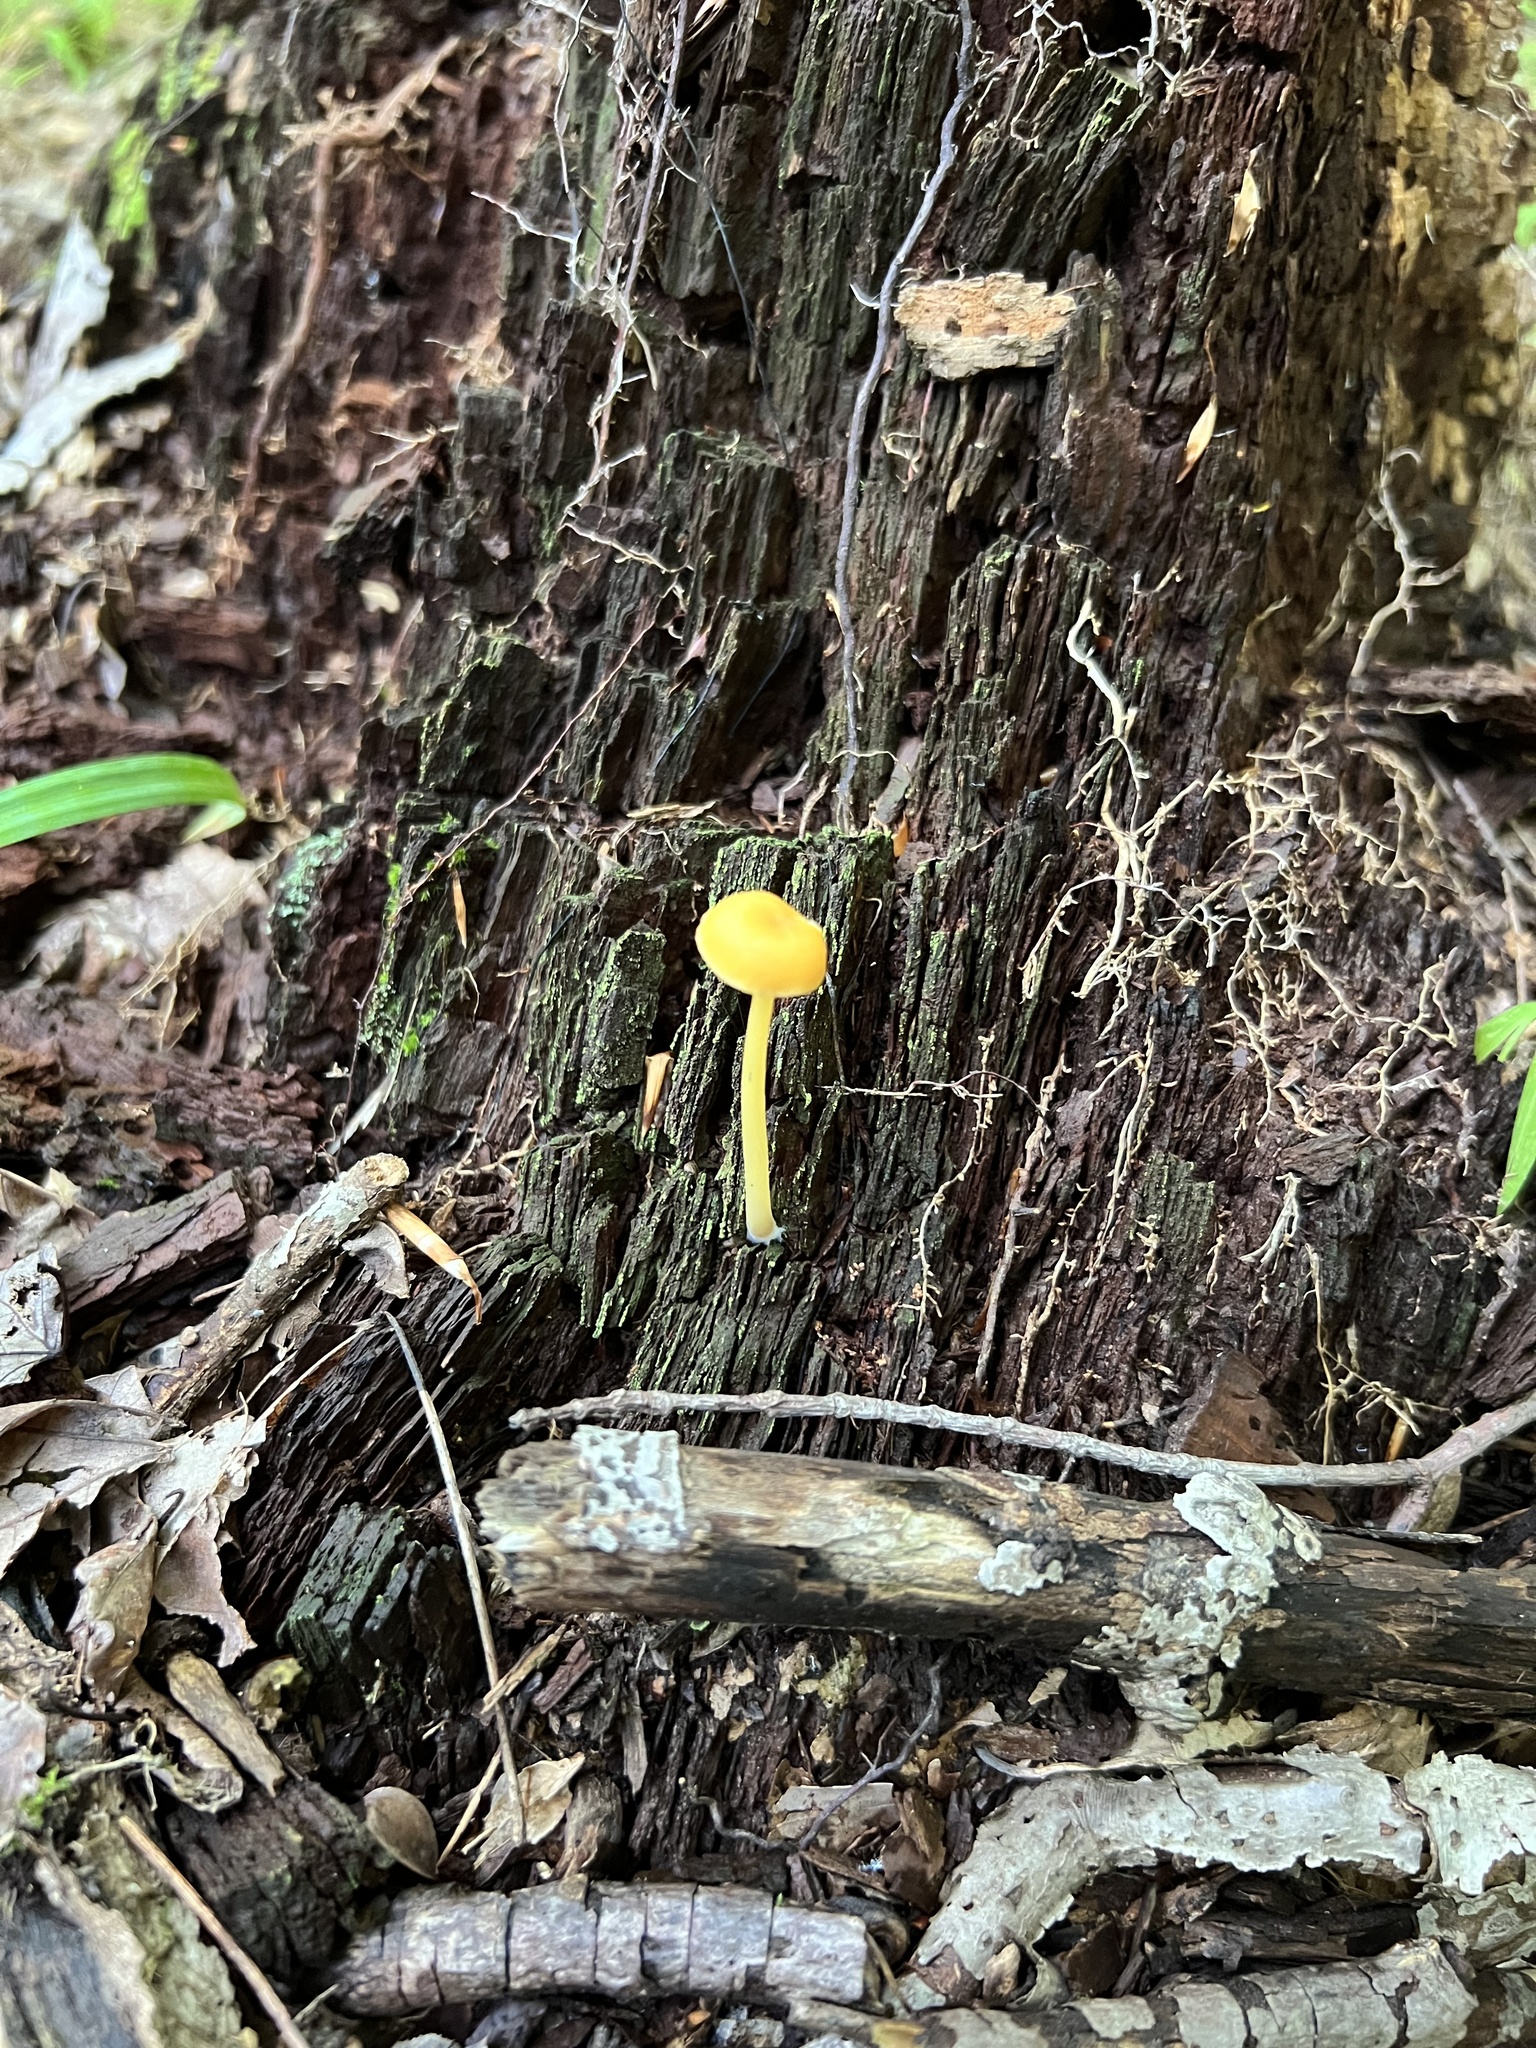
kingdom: Fungi
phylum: Basidiomycota
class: Agaricomycetes
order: Agaricales
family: Entolomataceae
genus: Entoloma
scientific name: Entoloma unicolor
